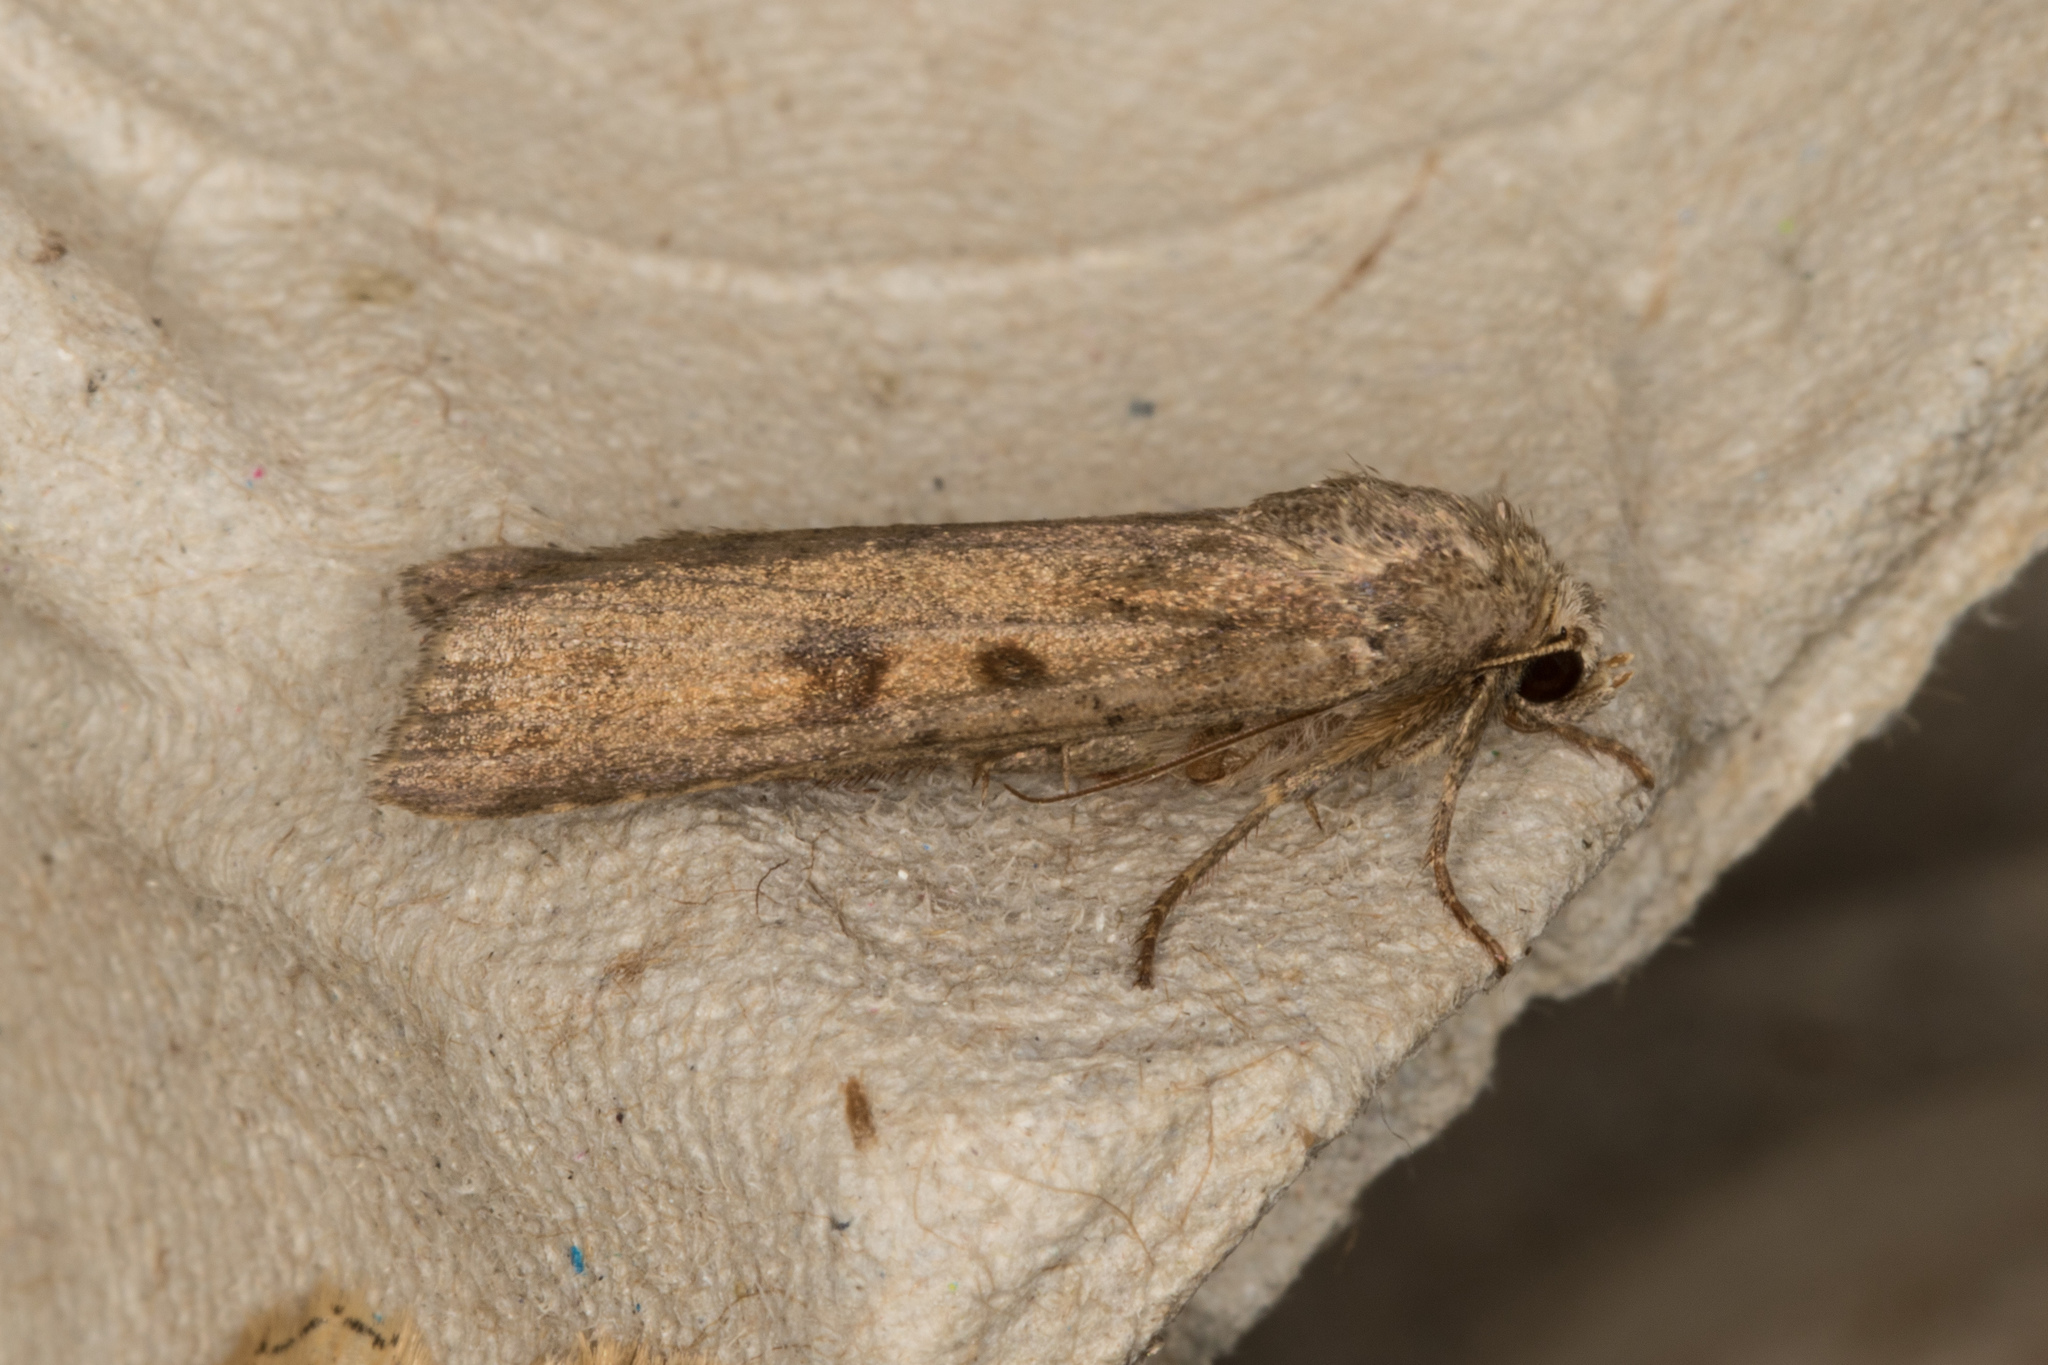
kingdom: Animalia
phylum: Arthropoda
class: Insecta
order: Lepidoptera
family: Noctuidae
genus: Caradrina
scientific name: Caradrina morpheus
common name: Mottled rustic
